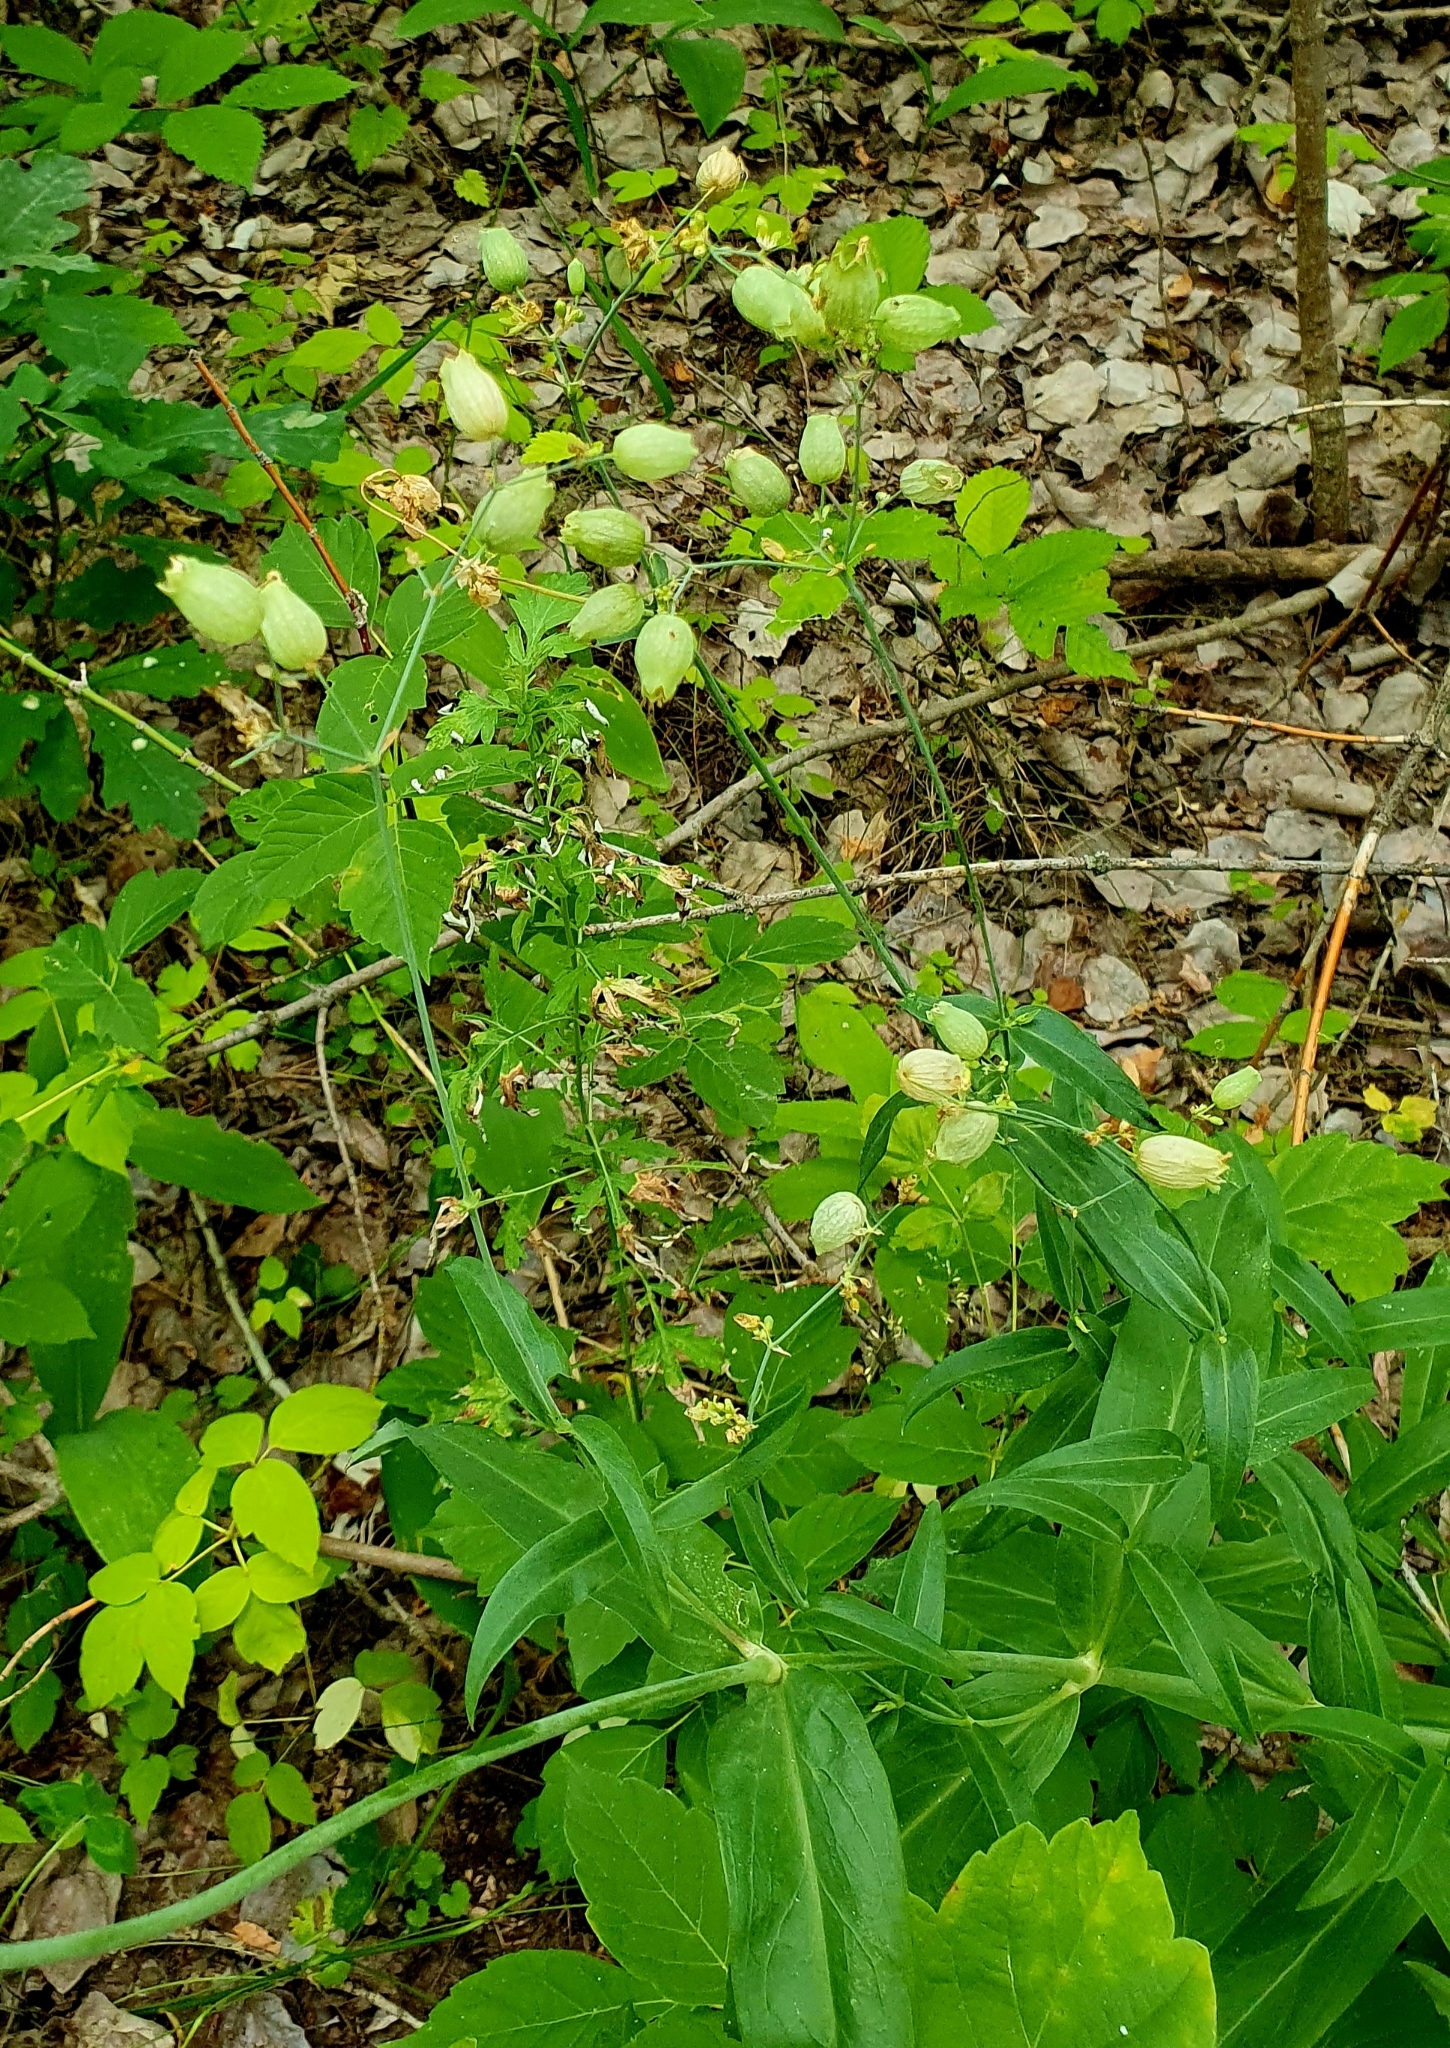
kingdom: Plantae
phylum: Tracheophyta
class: Magnoliopsida
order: Caryophyllales
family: Caryophyllaceae
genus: Silene
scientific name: Silene vulgaris
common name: Bladder campion
